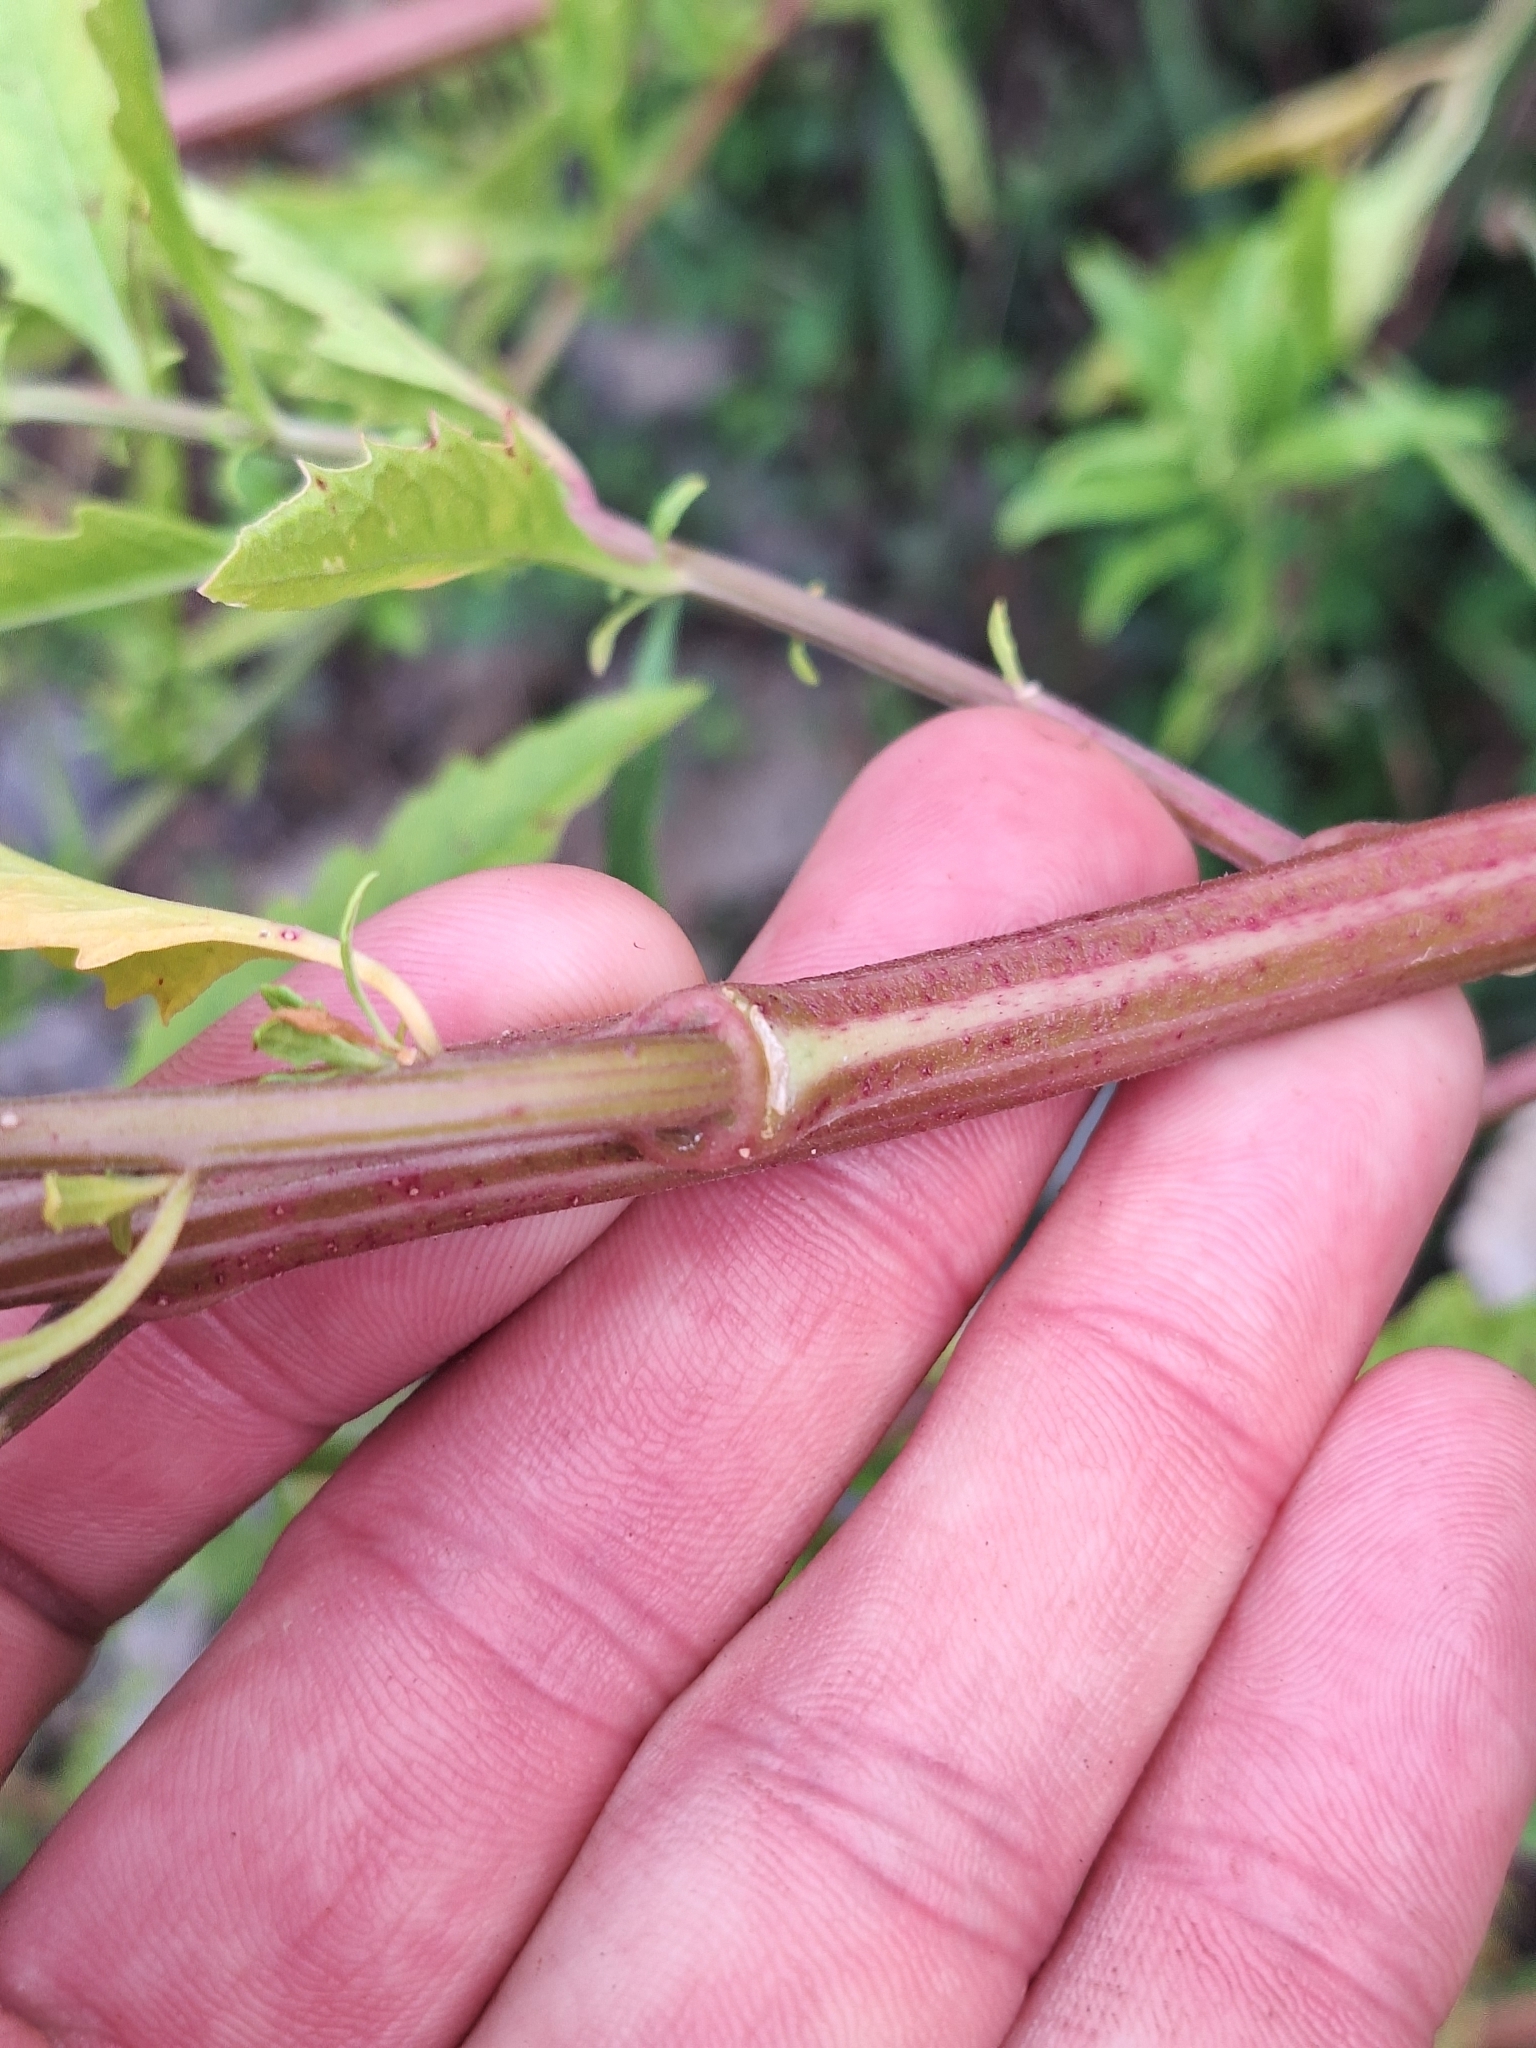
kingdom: Plantae
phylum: Tracheophyta
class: Magnoliopsida
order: Caryophyllales
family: Amaranthaceae
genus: Dysphania
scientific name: Dysphania ambrosioides
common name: Wormseed
